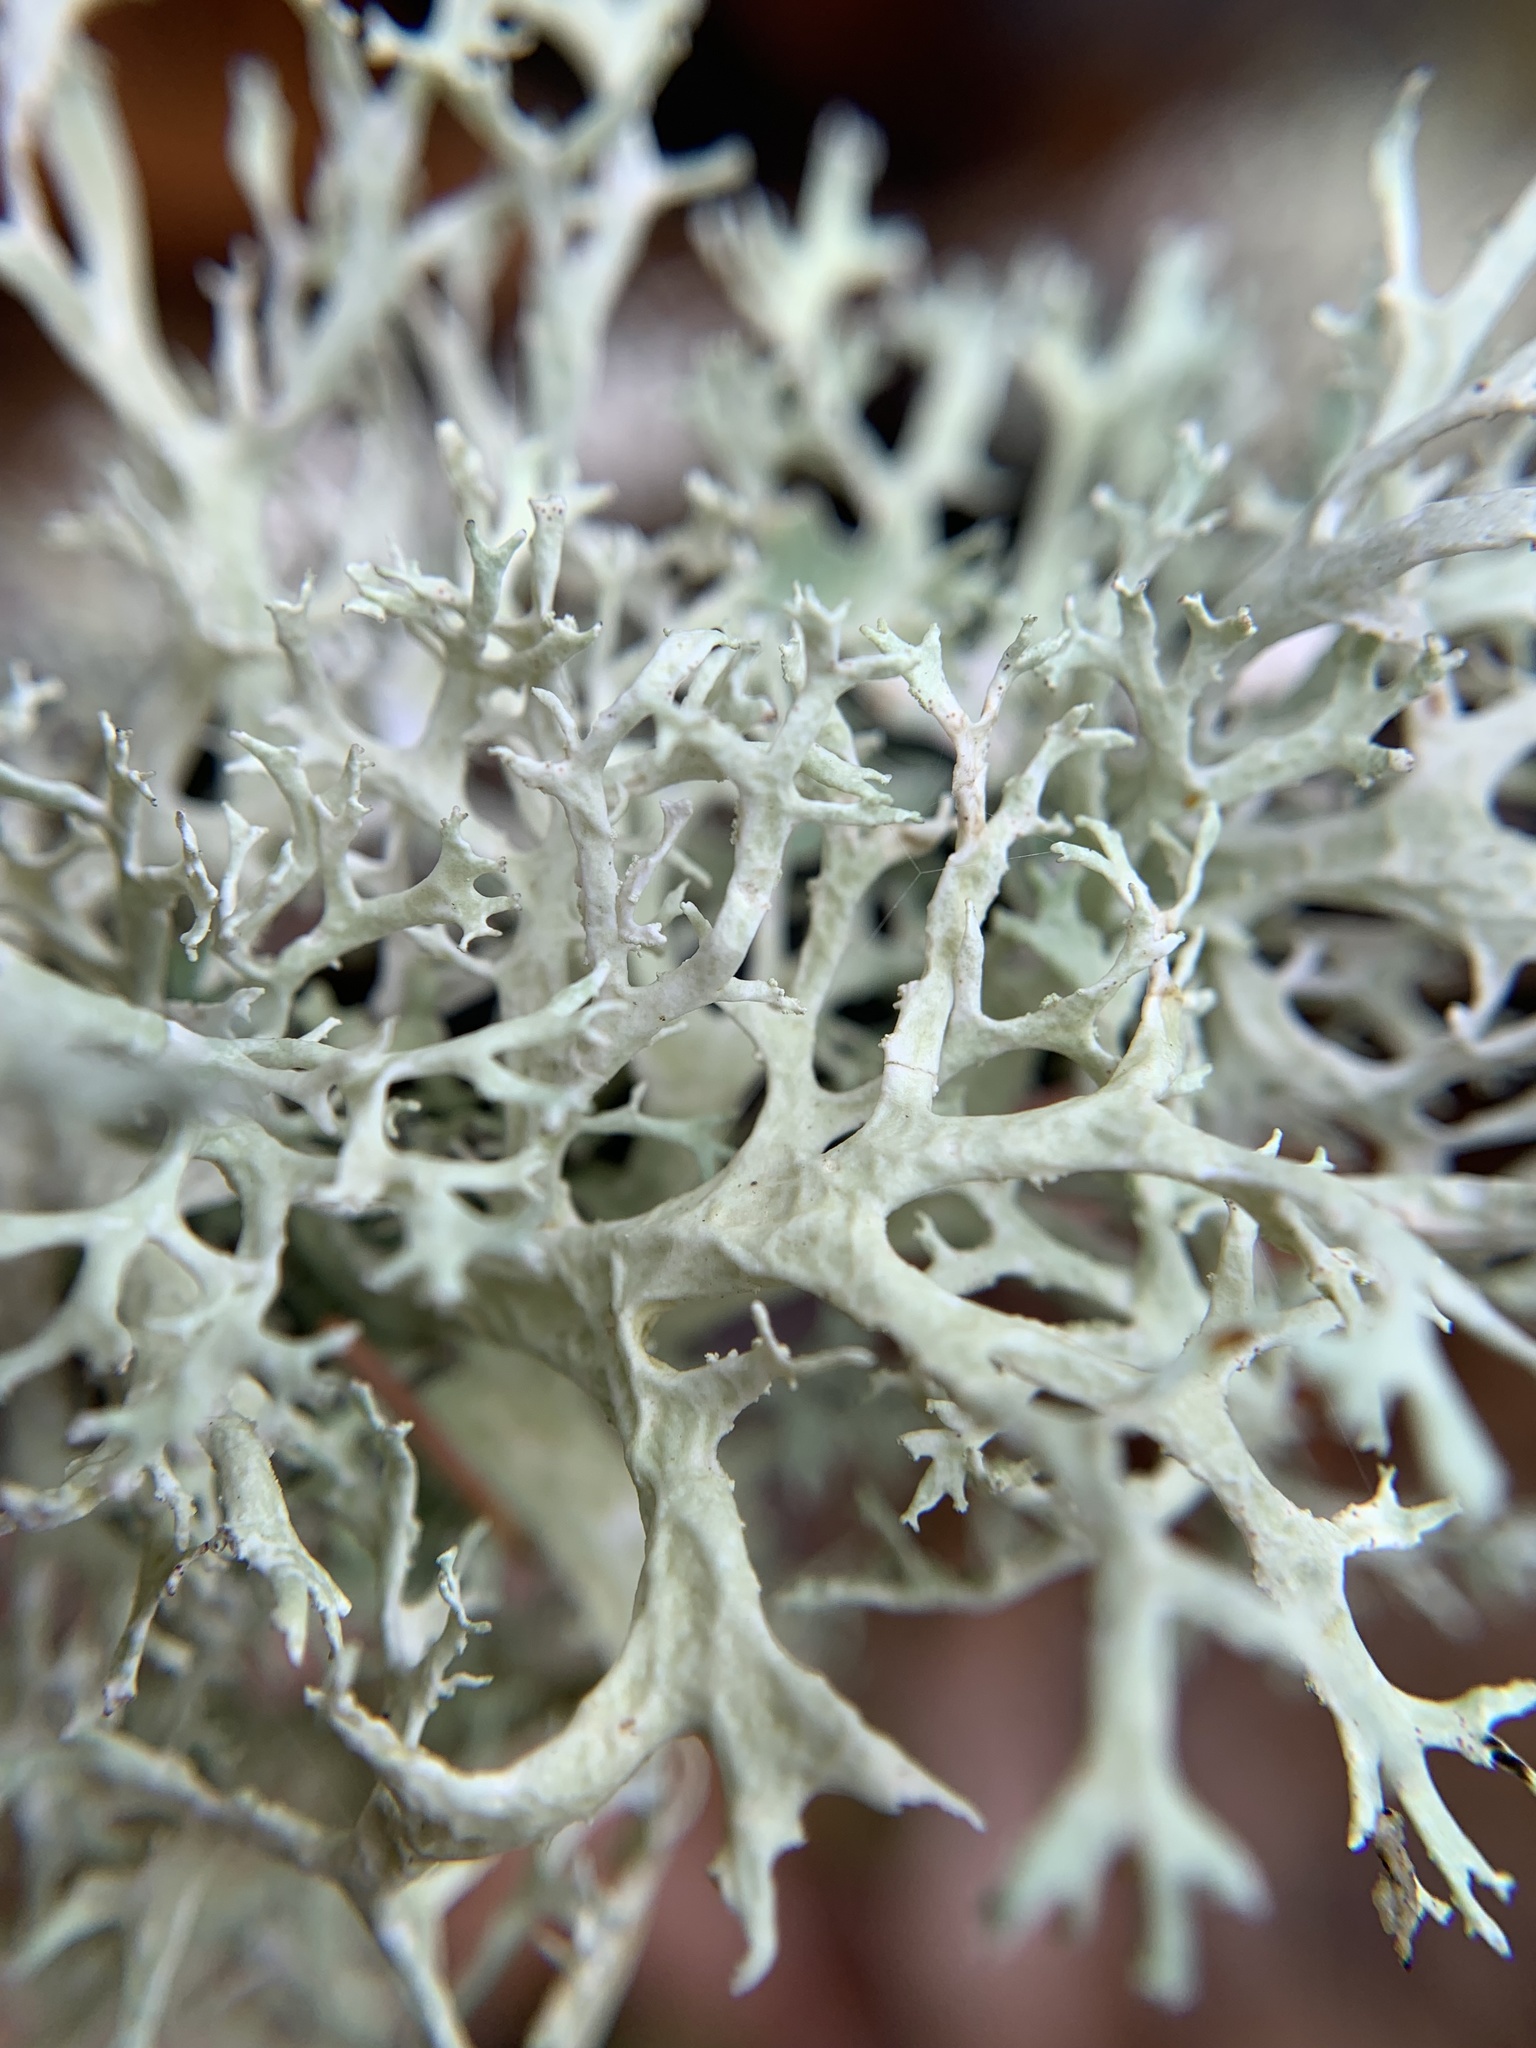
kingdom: Fungi
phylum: Ascomycota
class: Lecanoromycetes
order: Lecanorales
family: Parmeliaceae
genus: Evernia
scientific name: Evernia prunastri
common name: Oak moss
